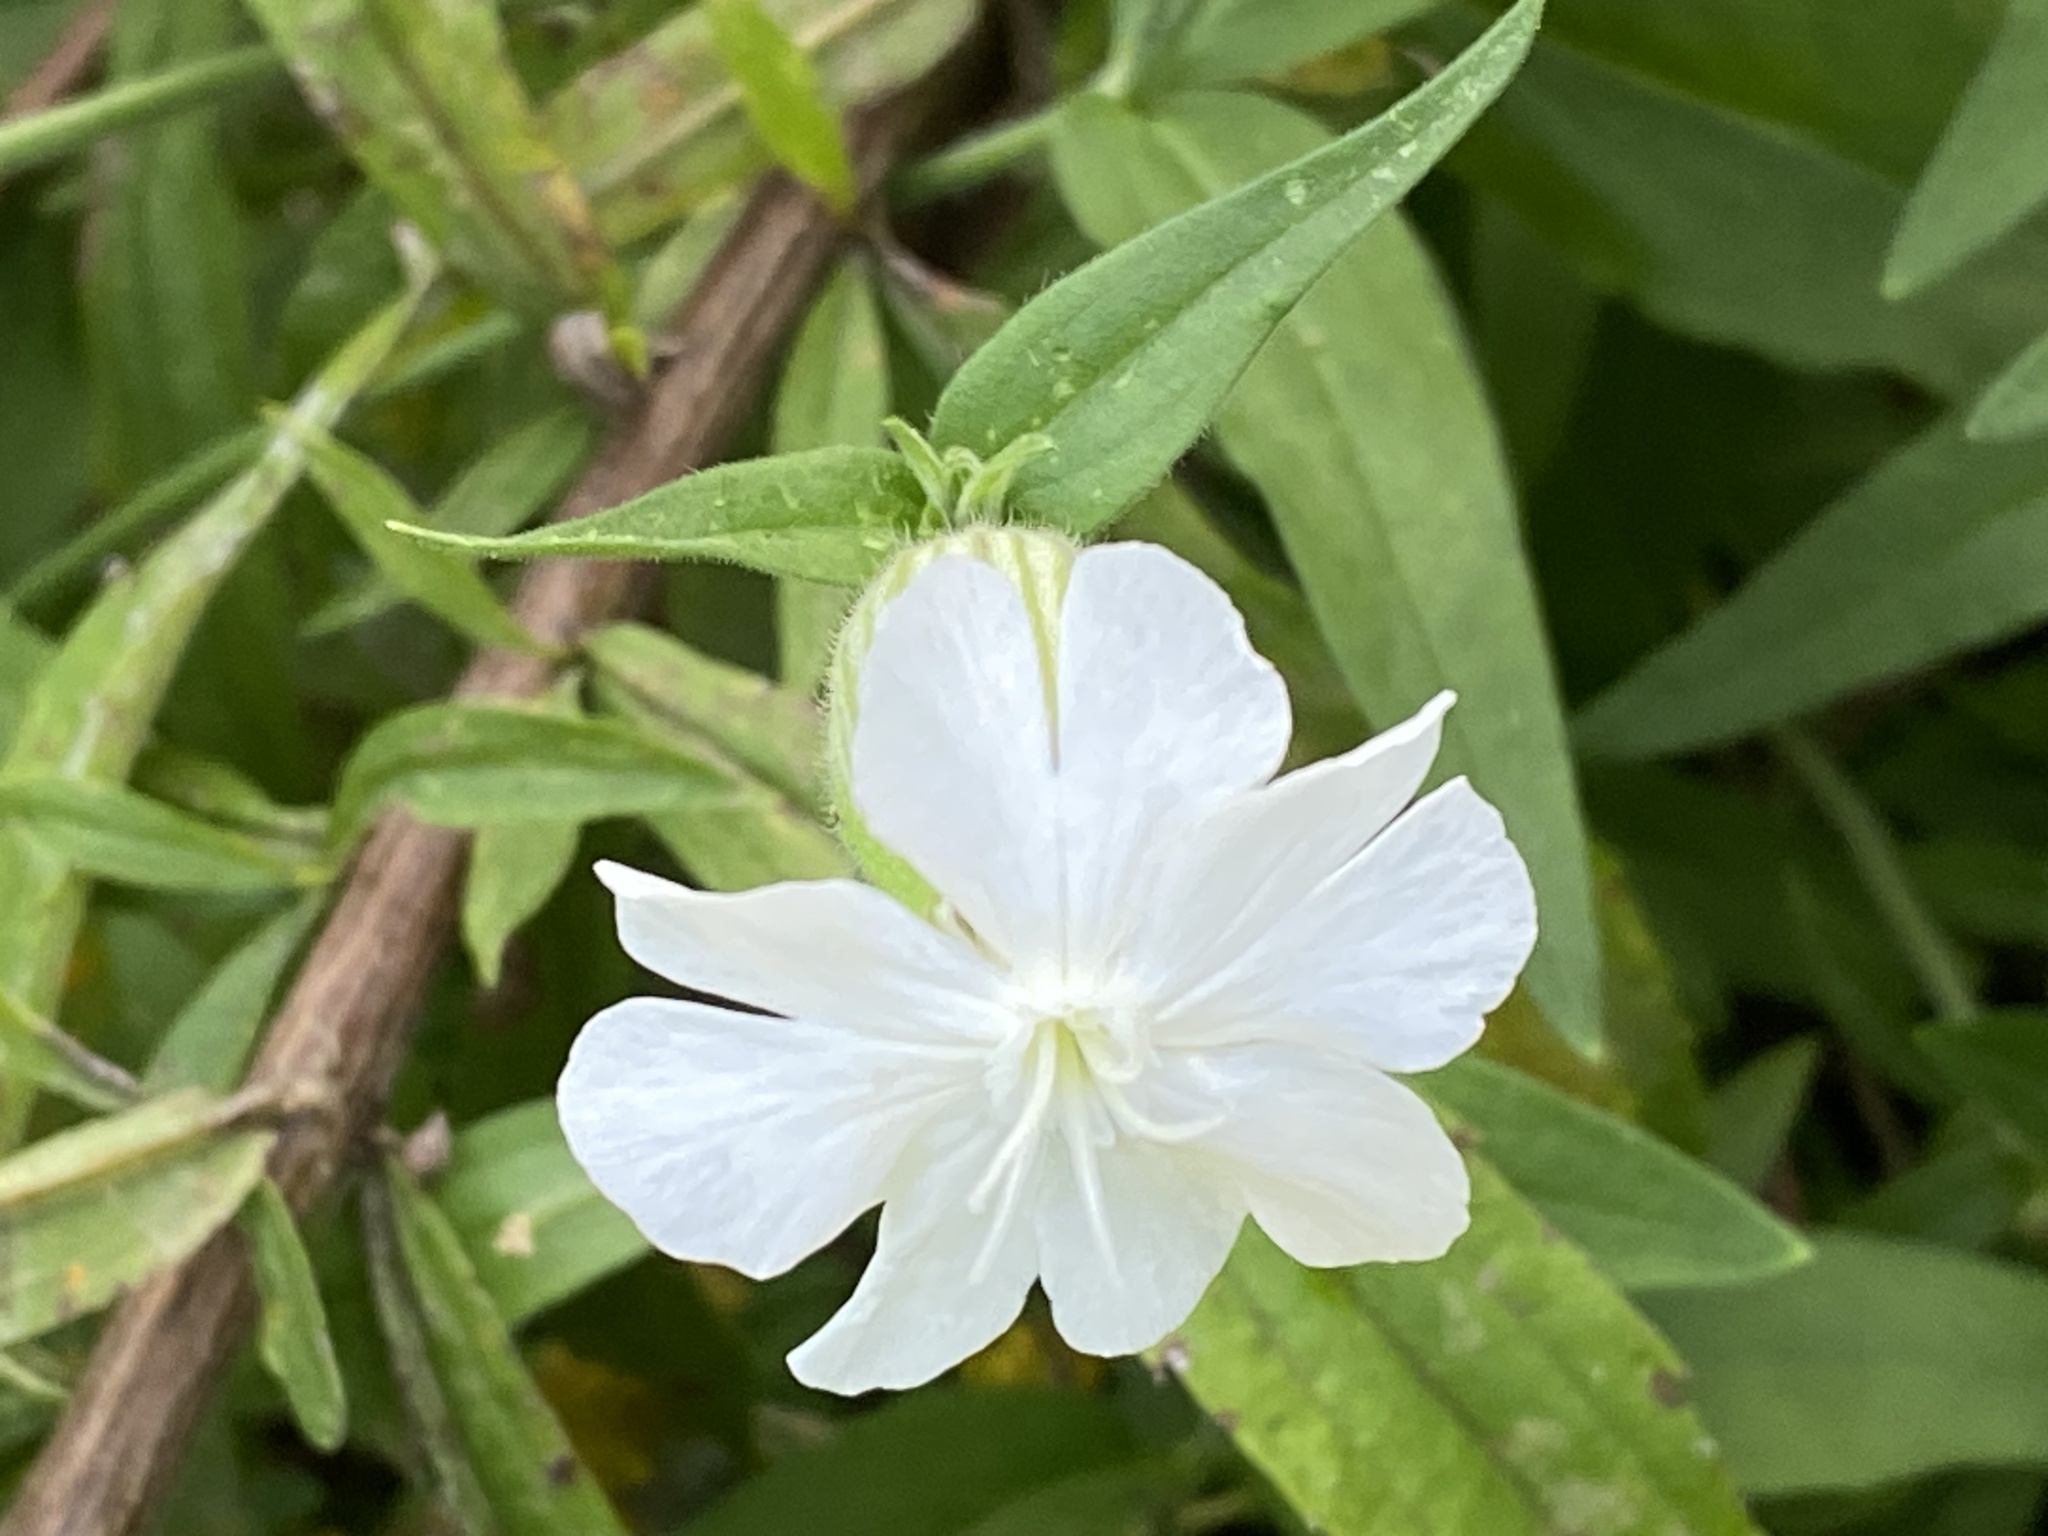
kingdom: Plantae
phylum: Tracheophyta
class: Magnoliopsida
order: Caryophyllales
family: Caryophyllaceae
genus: Silene
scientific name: Silene latifolia
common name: White campion
